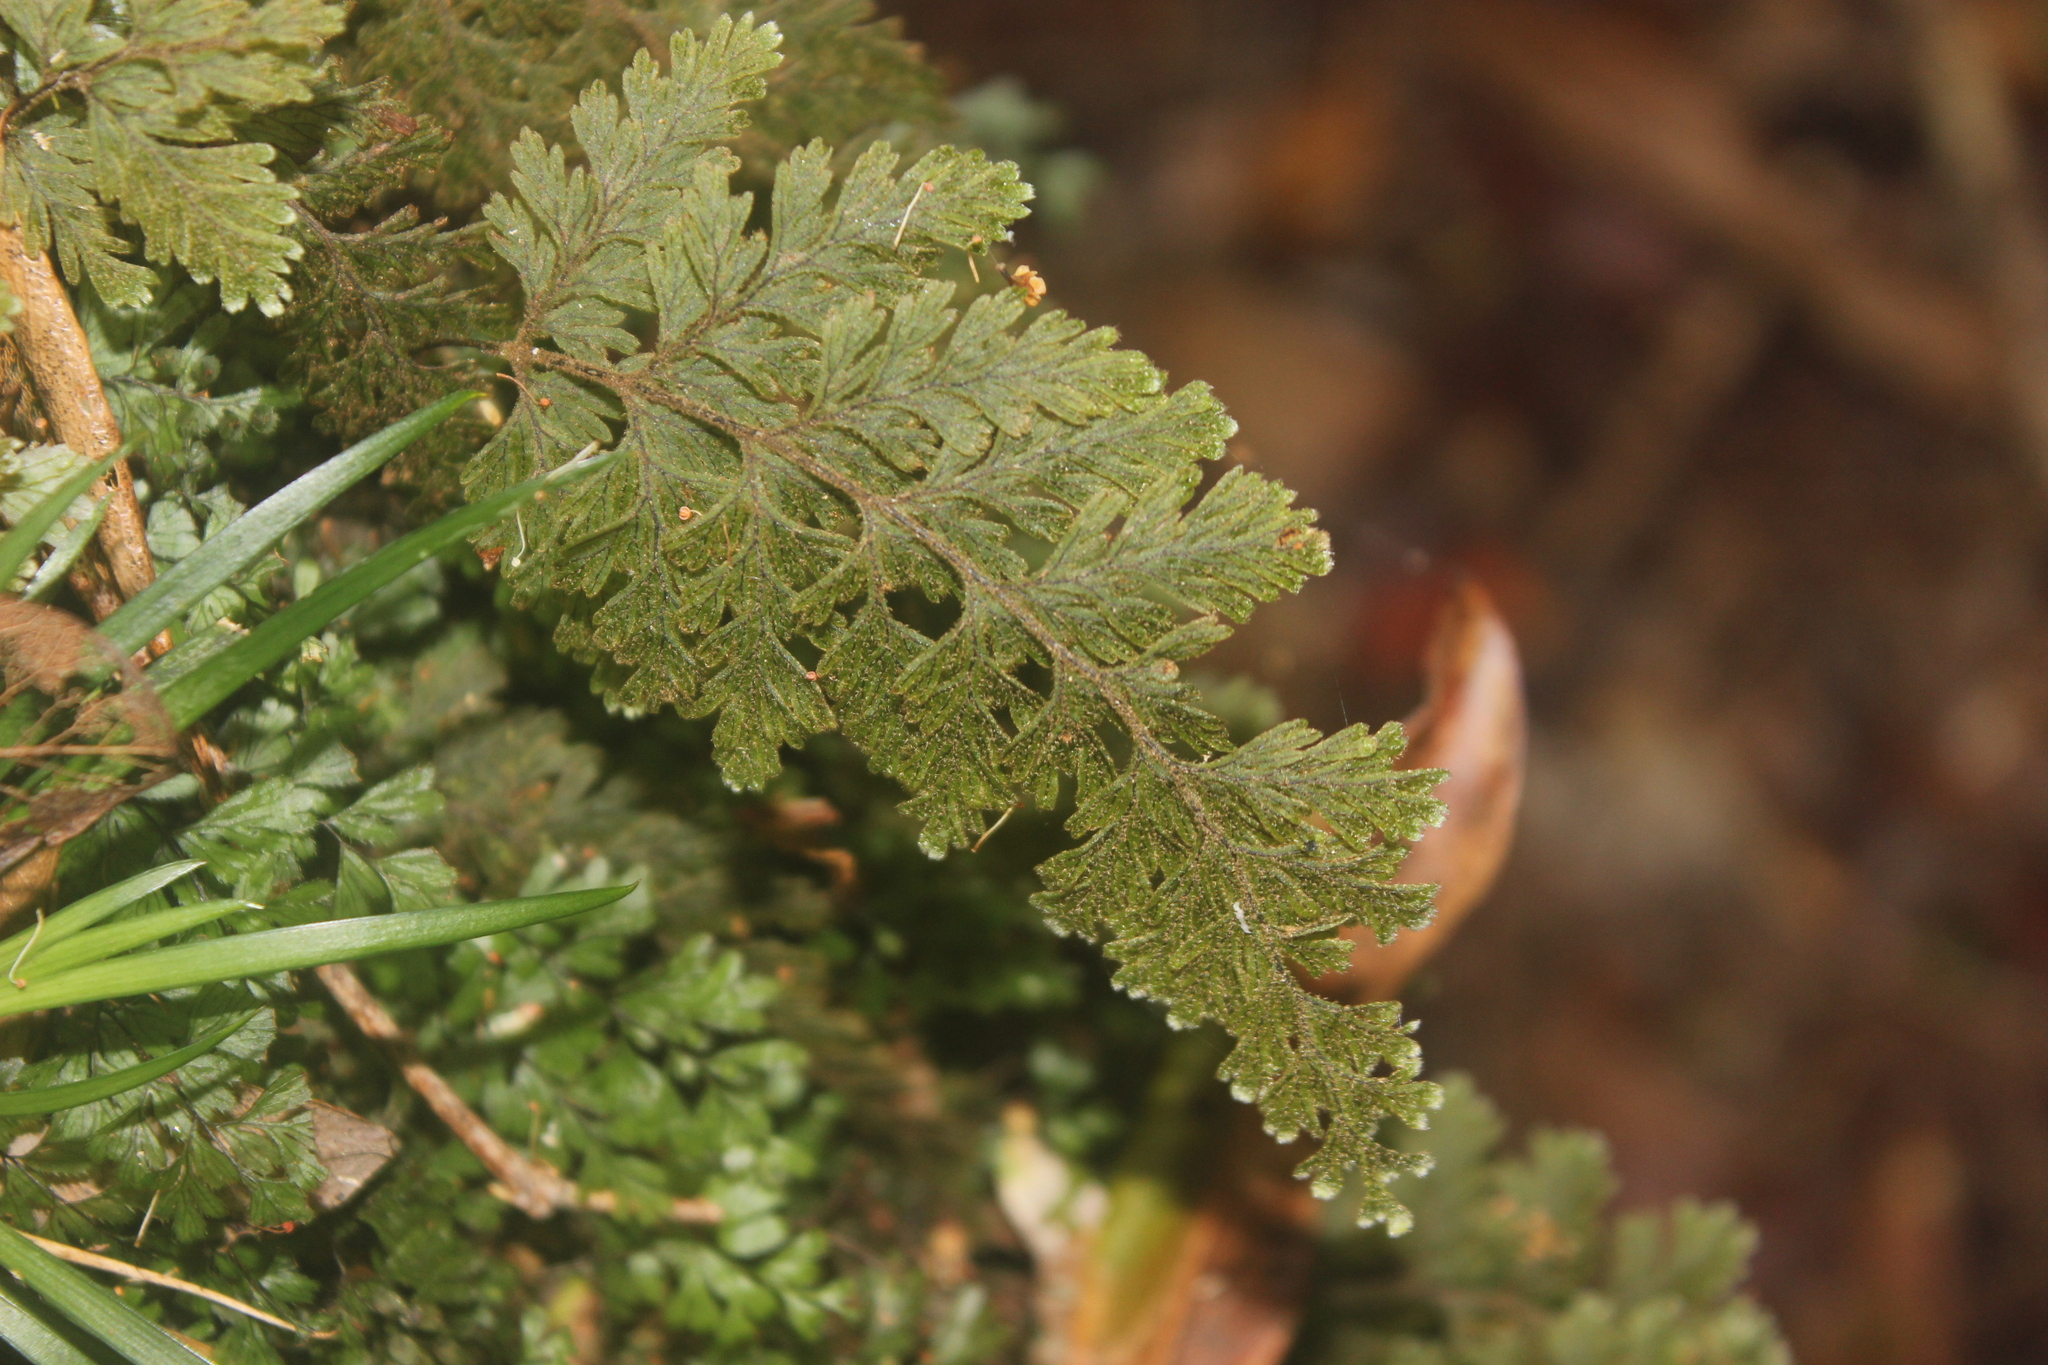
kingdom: Plantae
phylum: Tracheophyta
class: Polypodiopsida
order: Hymenophyllales
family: Hymenophyllaceae
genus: Hymenophyllum
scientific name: Hymenophyllum frankliniae
